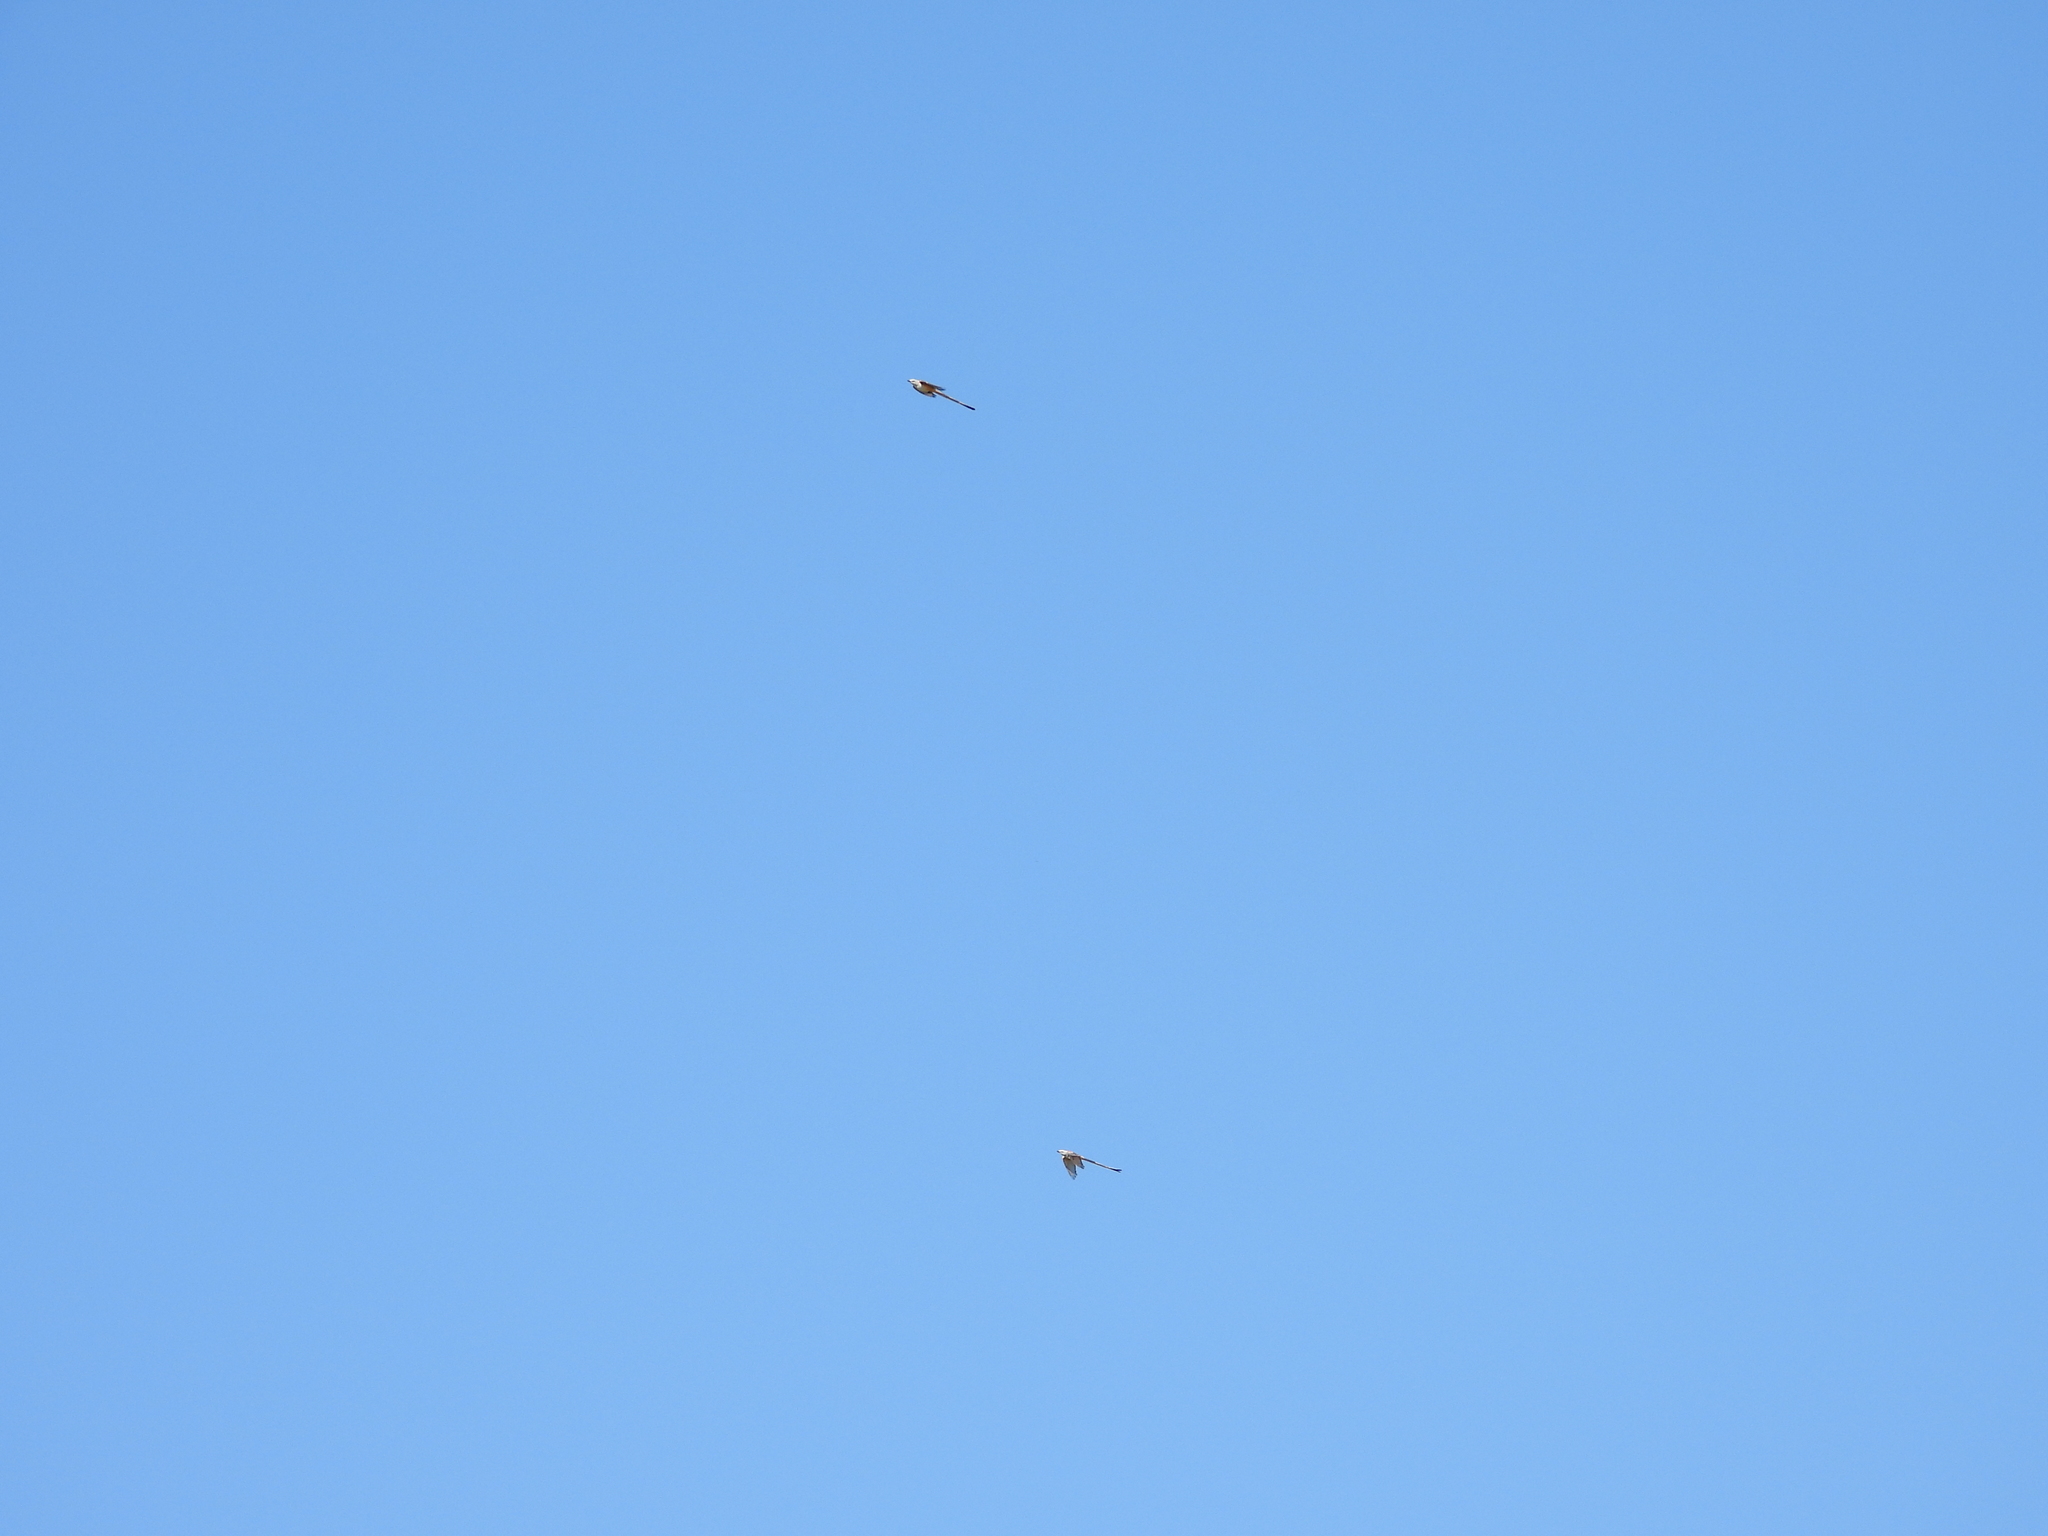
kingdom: Animalia
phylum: Chordata
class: Aves
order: Passeriformes
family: Tyrannidae
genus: Tyrannus
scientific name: Tyrannus forficatus
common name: Scissor-tailed flycatcher
